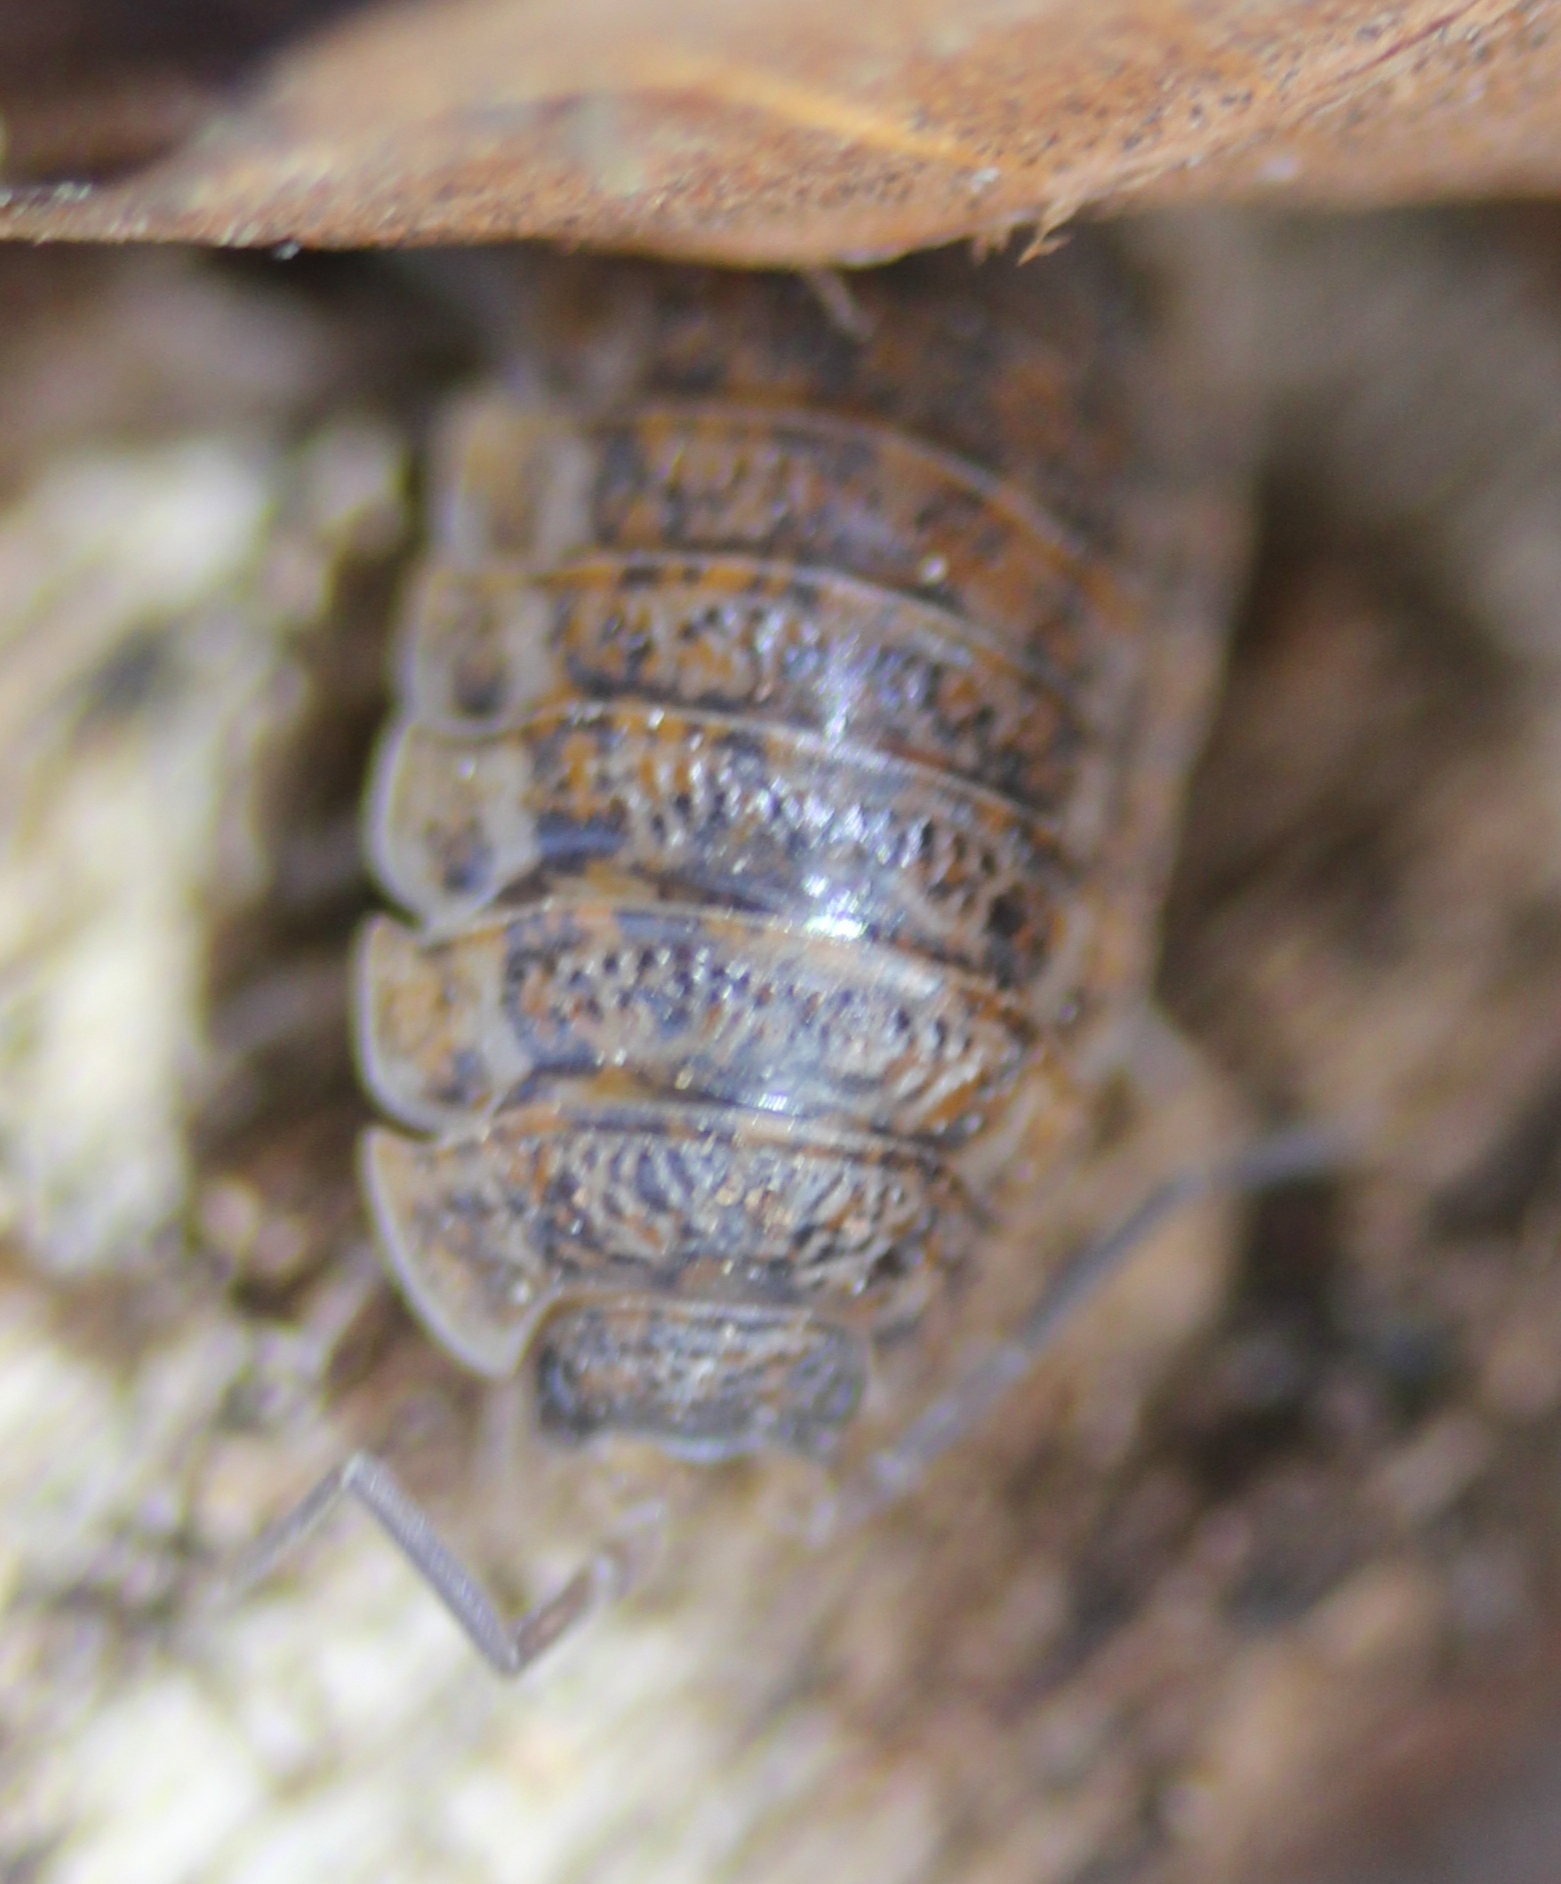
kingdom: Animalia
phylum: Arthropoda
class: Malacostraca
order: Isopoda
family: Trachelipodidae
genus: Trachelipus
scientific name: Trachelipus rathkii
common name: Isopod
